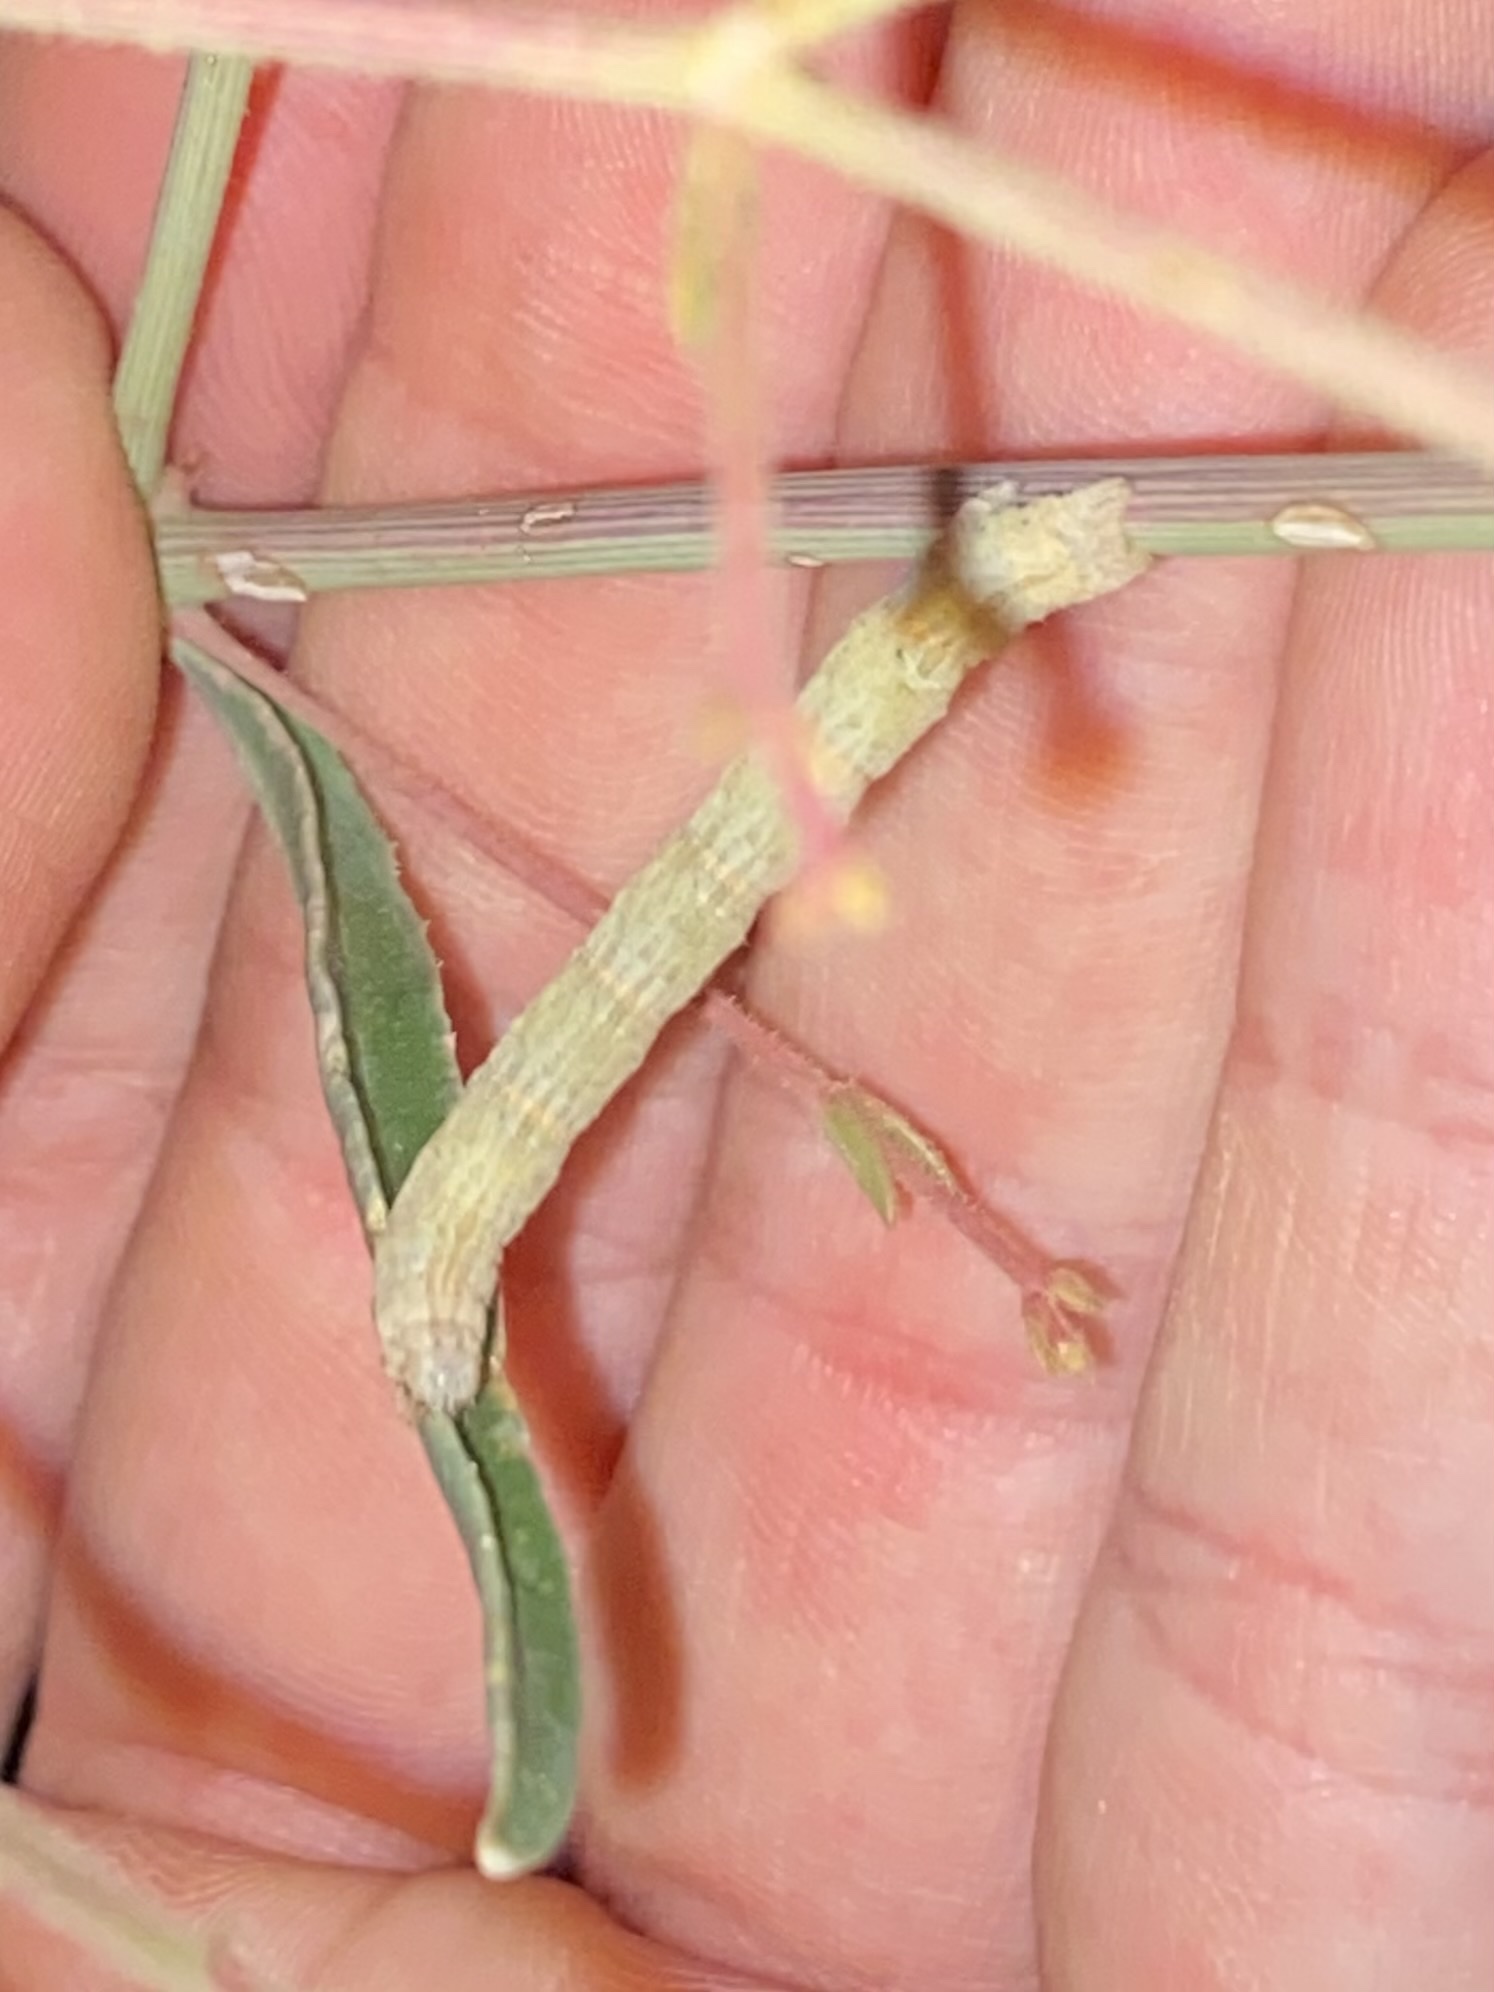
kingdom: Animalia
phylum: Arthropoda
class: Insecta
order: Lepidoptera
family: Geometridae
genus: Archirhoe
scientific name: Archirhoe neomexicana
